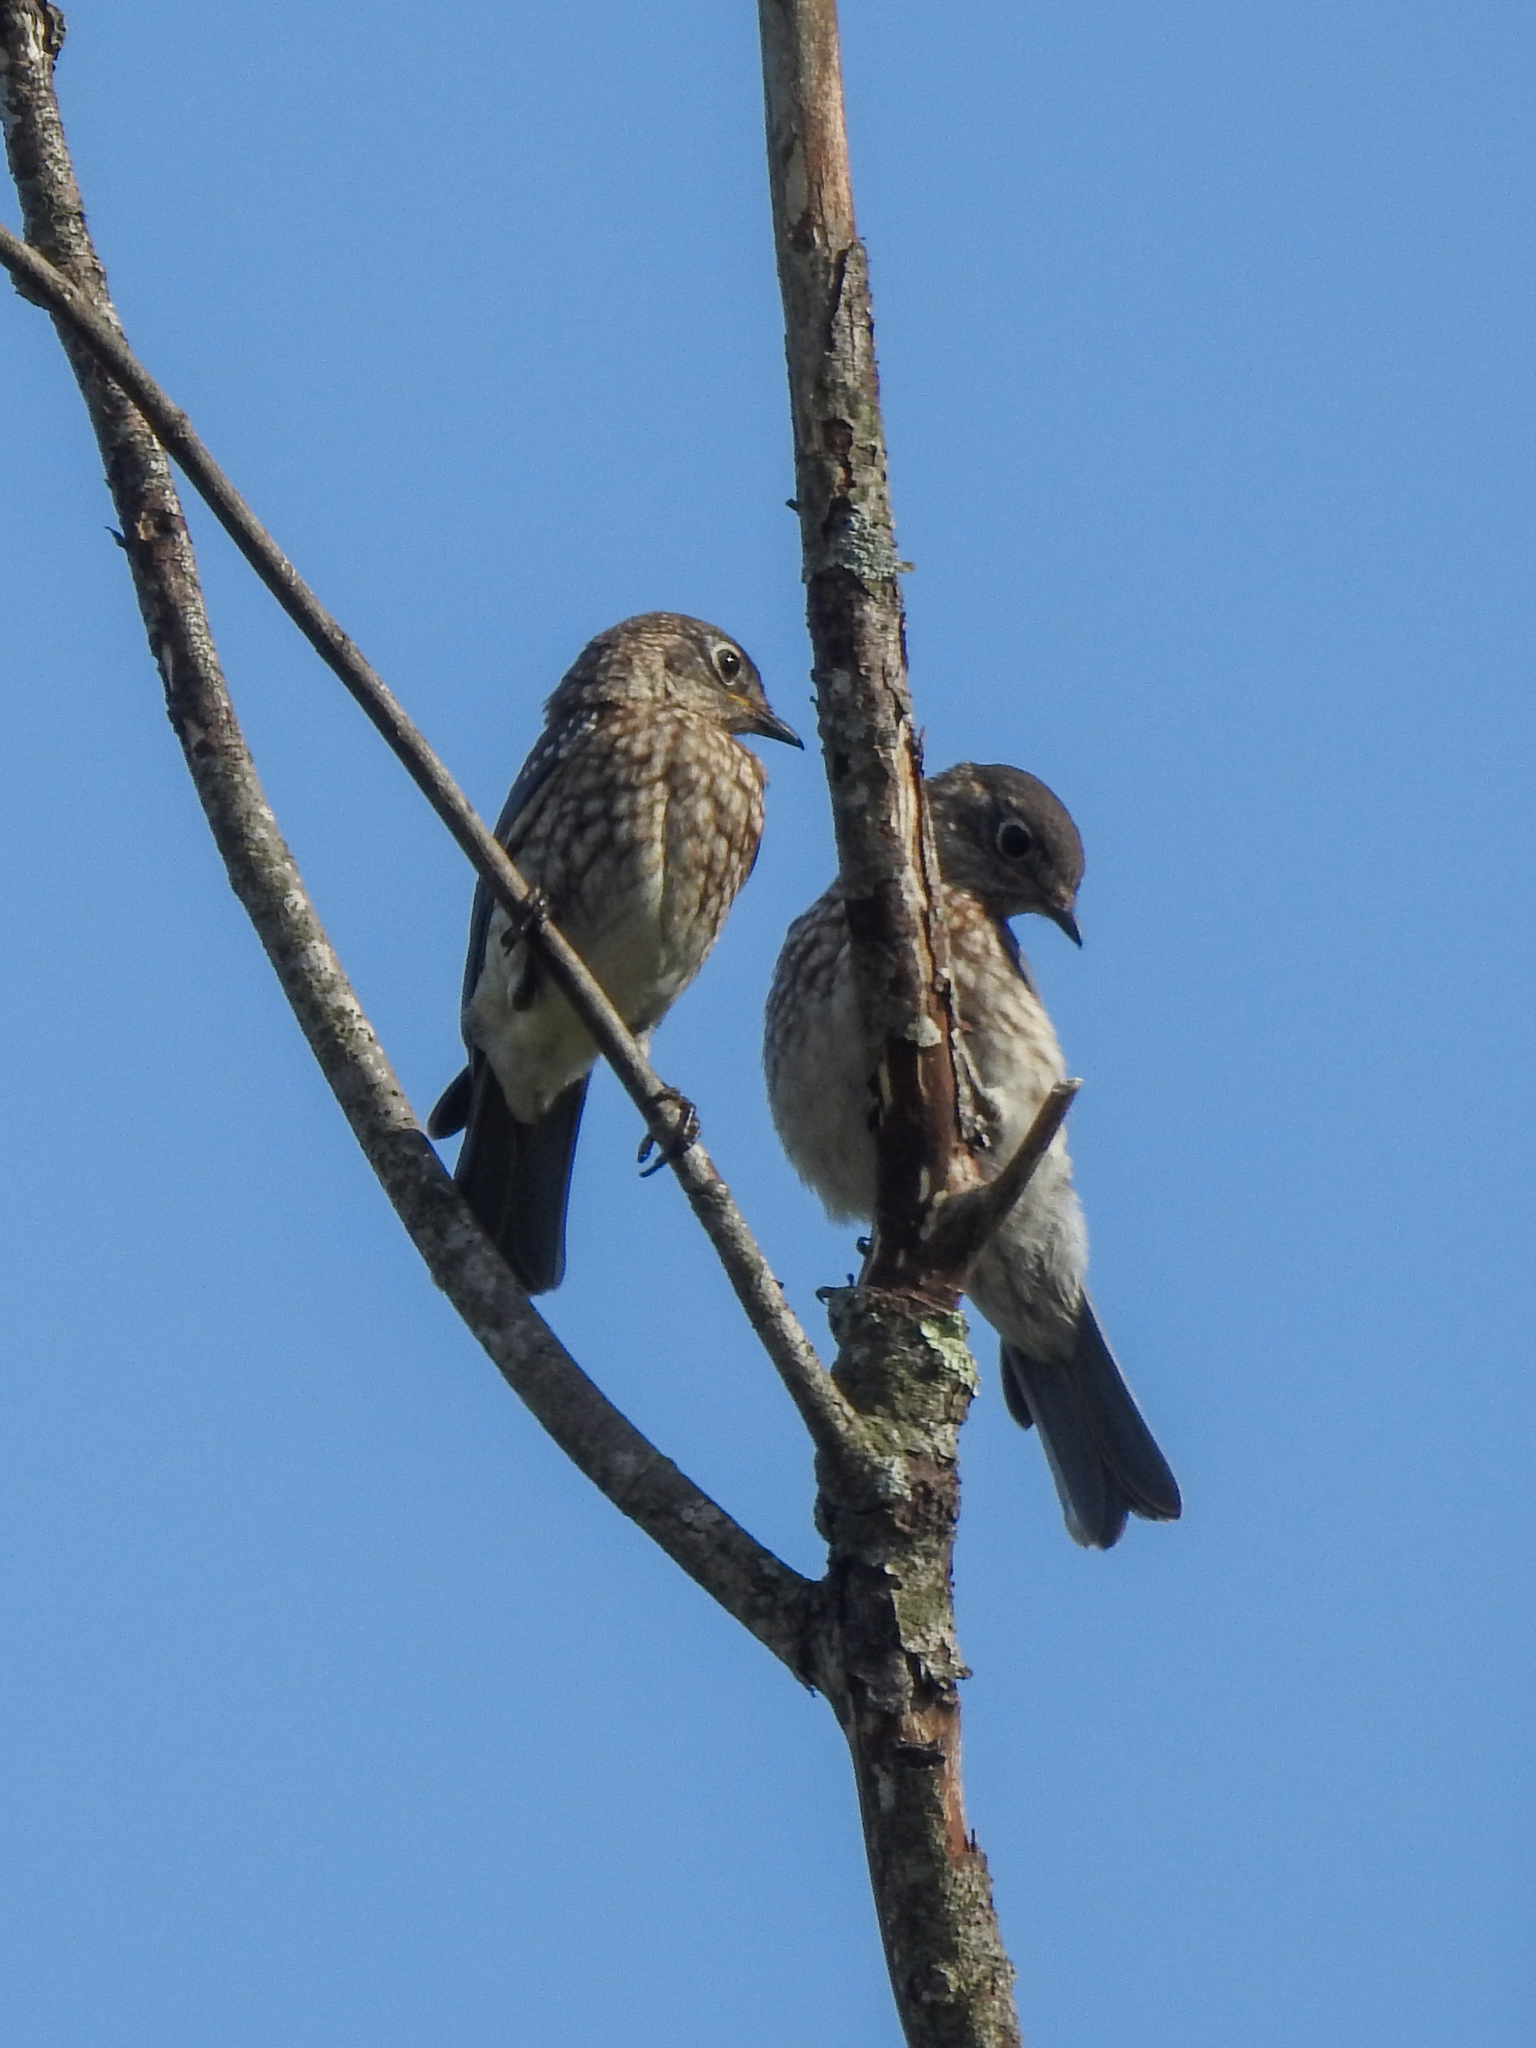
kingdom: Animalia
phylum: Chordata
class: Aves
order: Passeriformes
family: Turdidae
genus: Sialia
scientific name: Sialia sialis
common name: Eastern bluebird
